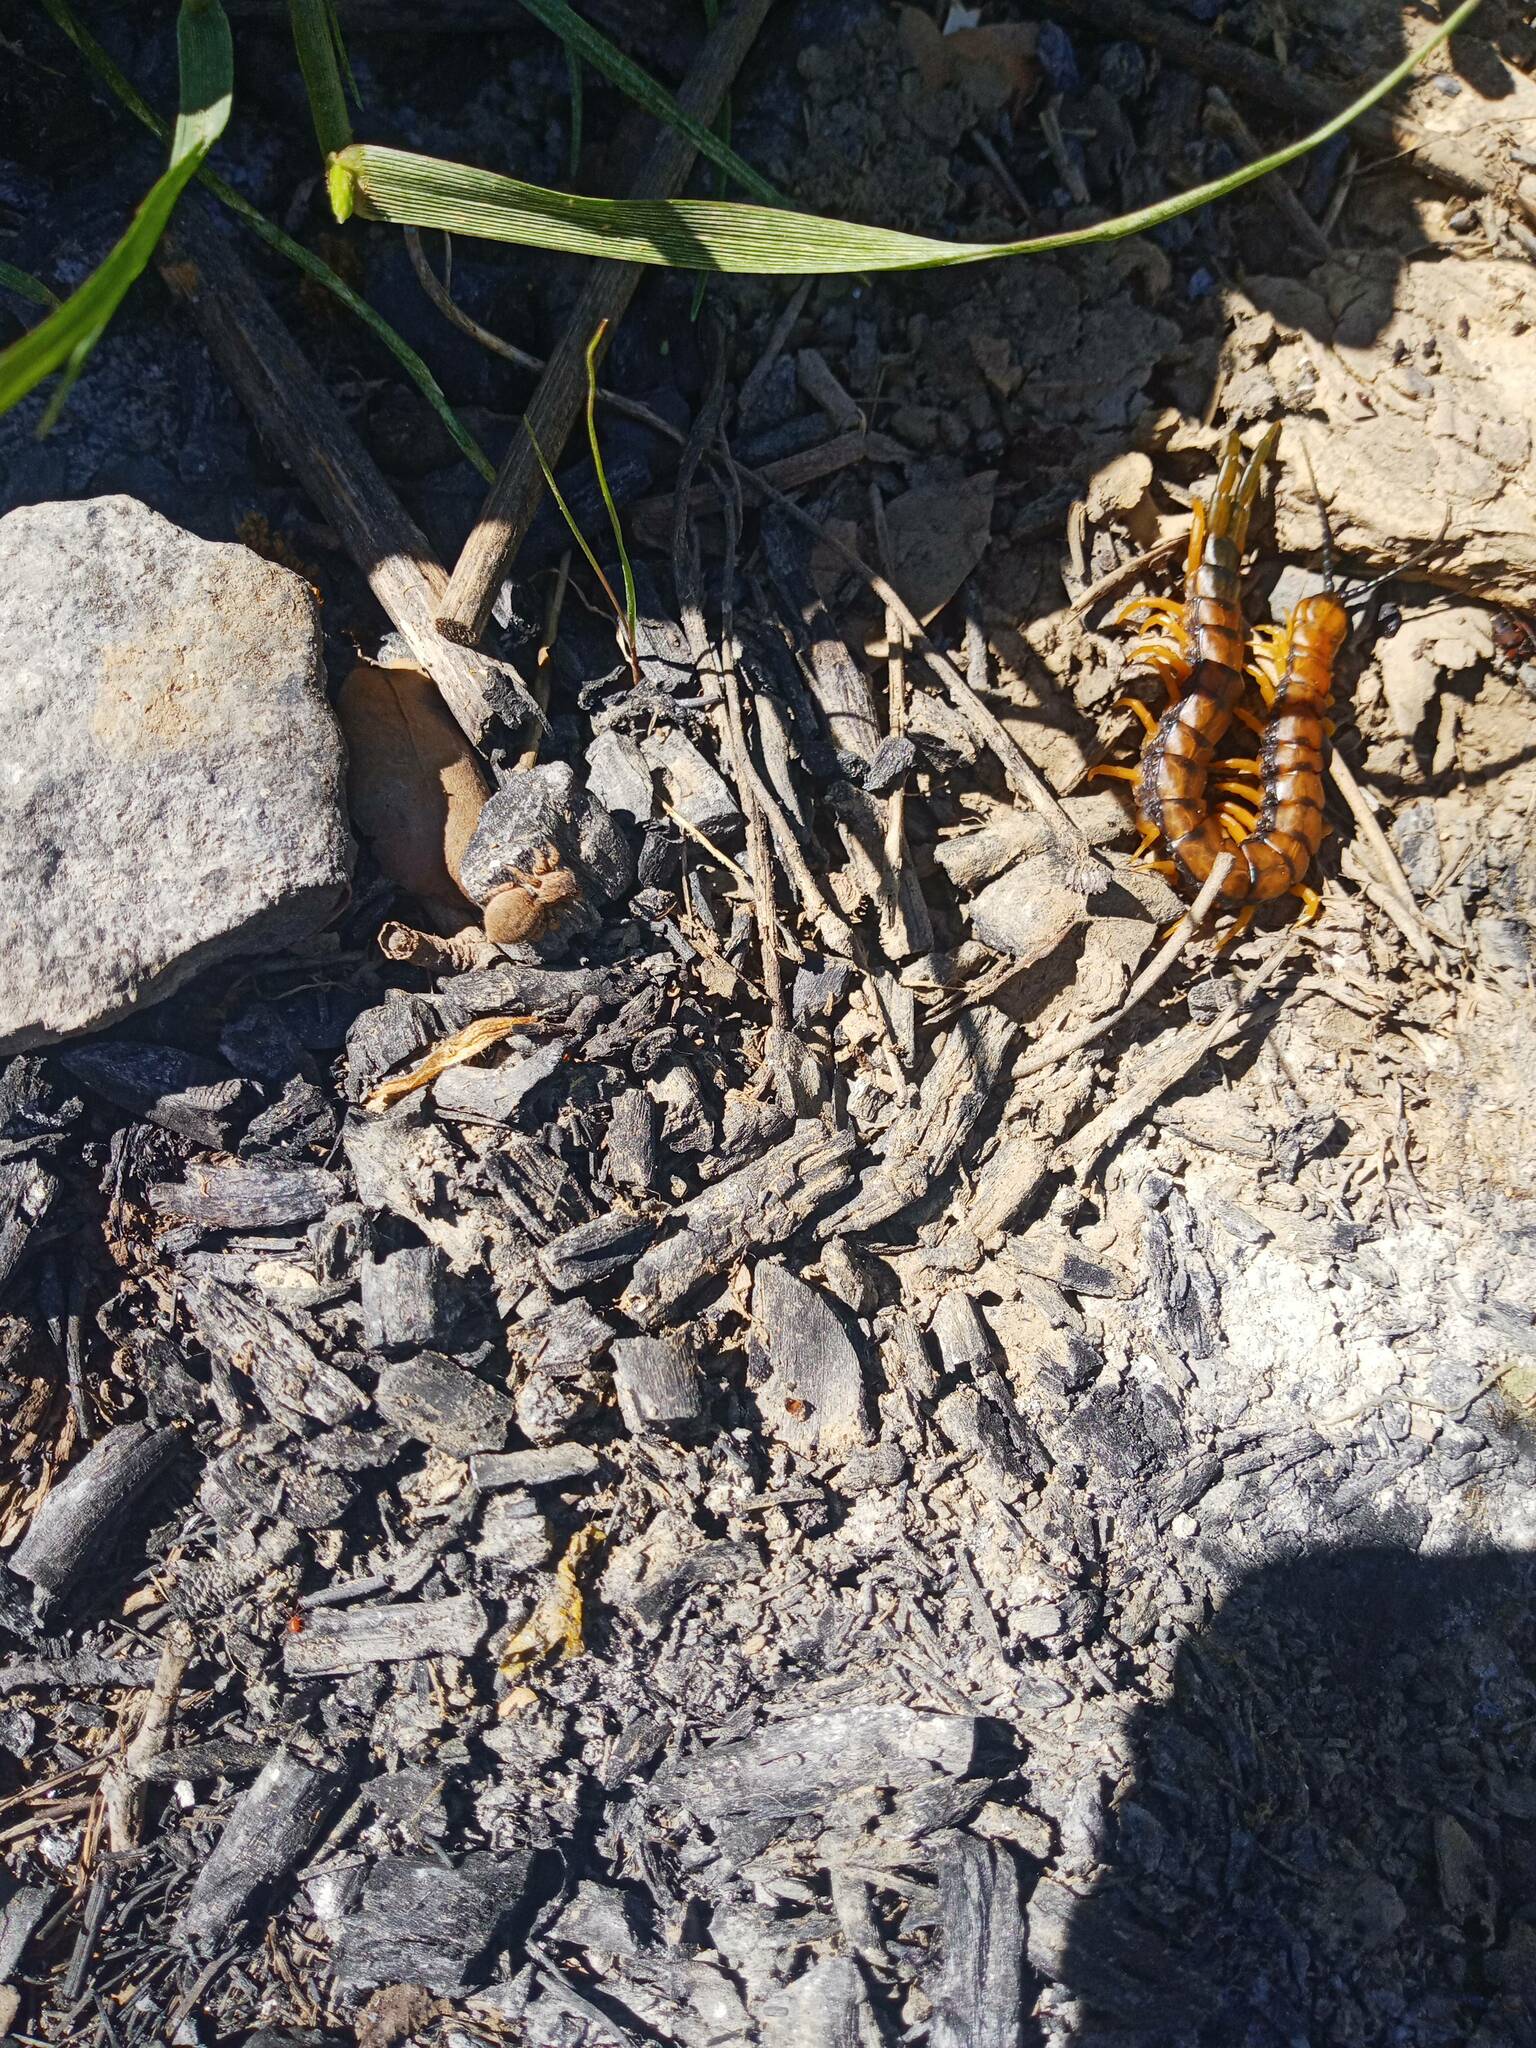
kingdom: Animalia
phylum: Arthropoda
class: Chilopoda
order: Scolopendromorpha
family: Scolopendridae
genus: Scolopendra
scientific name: Scolopendra cingulata
